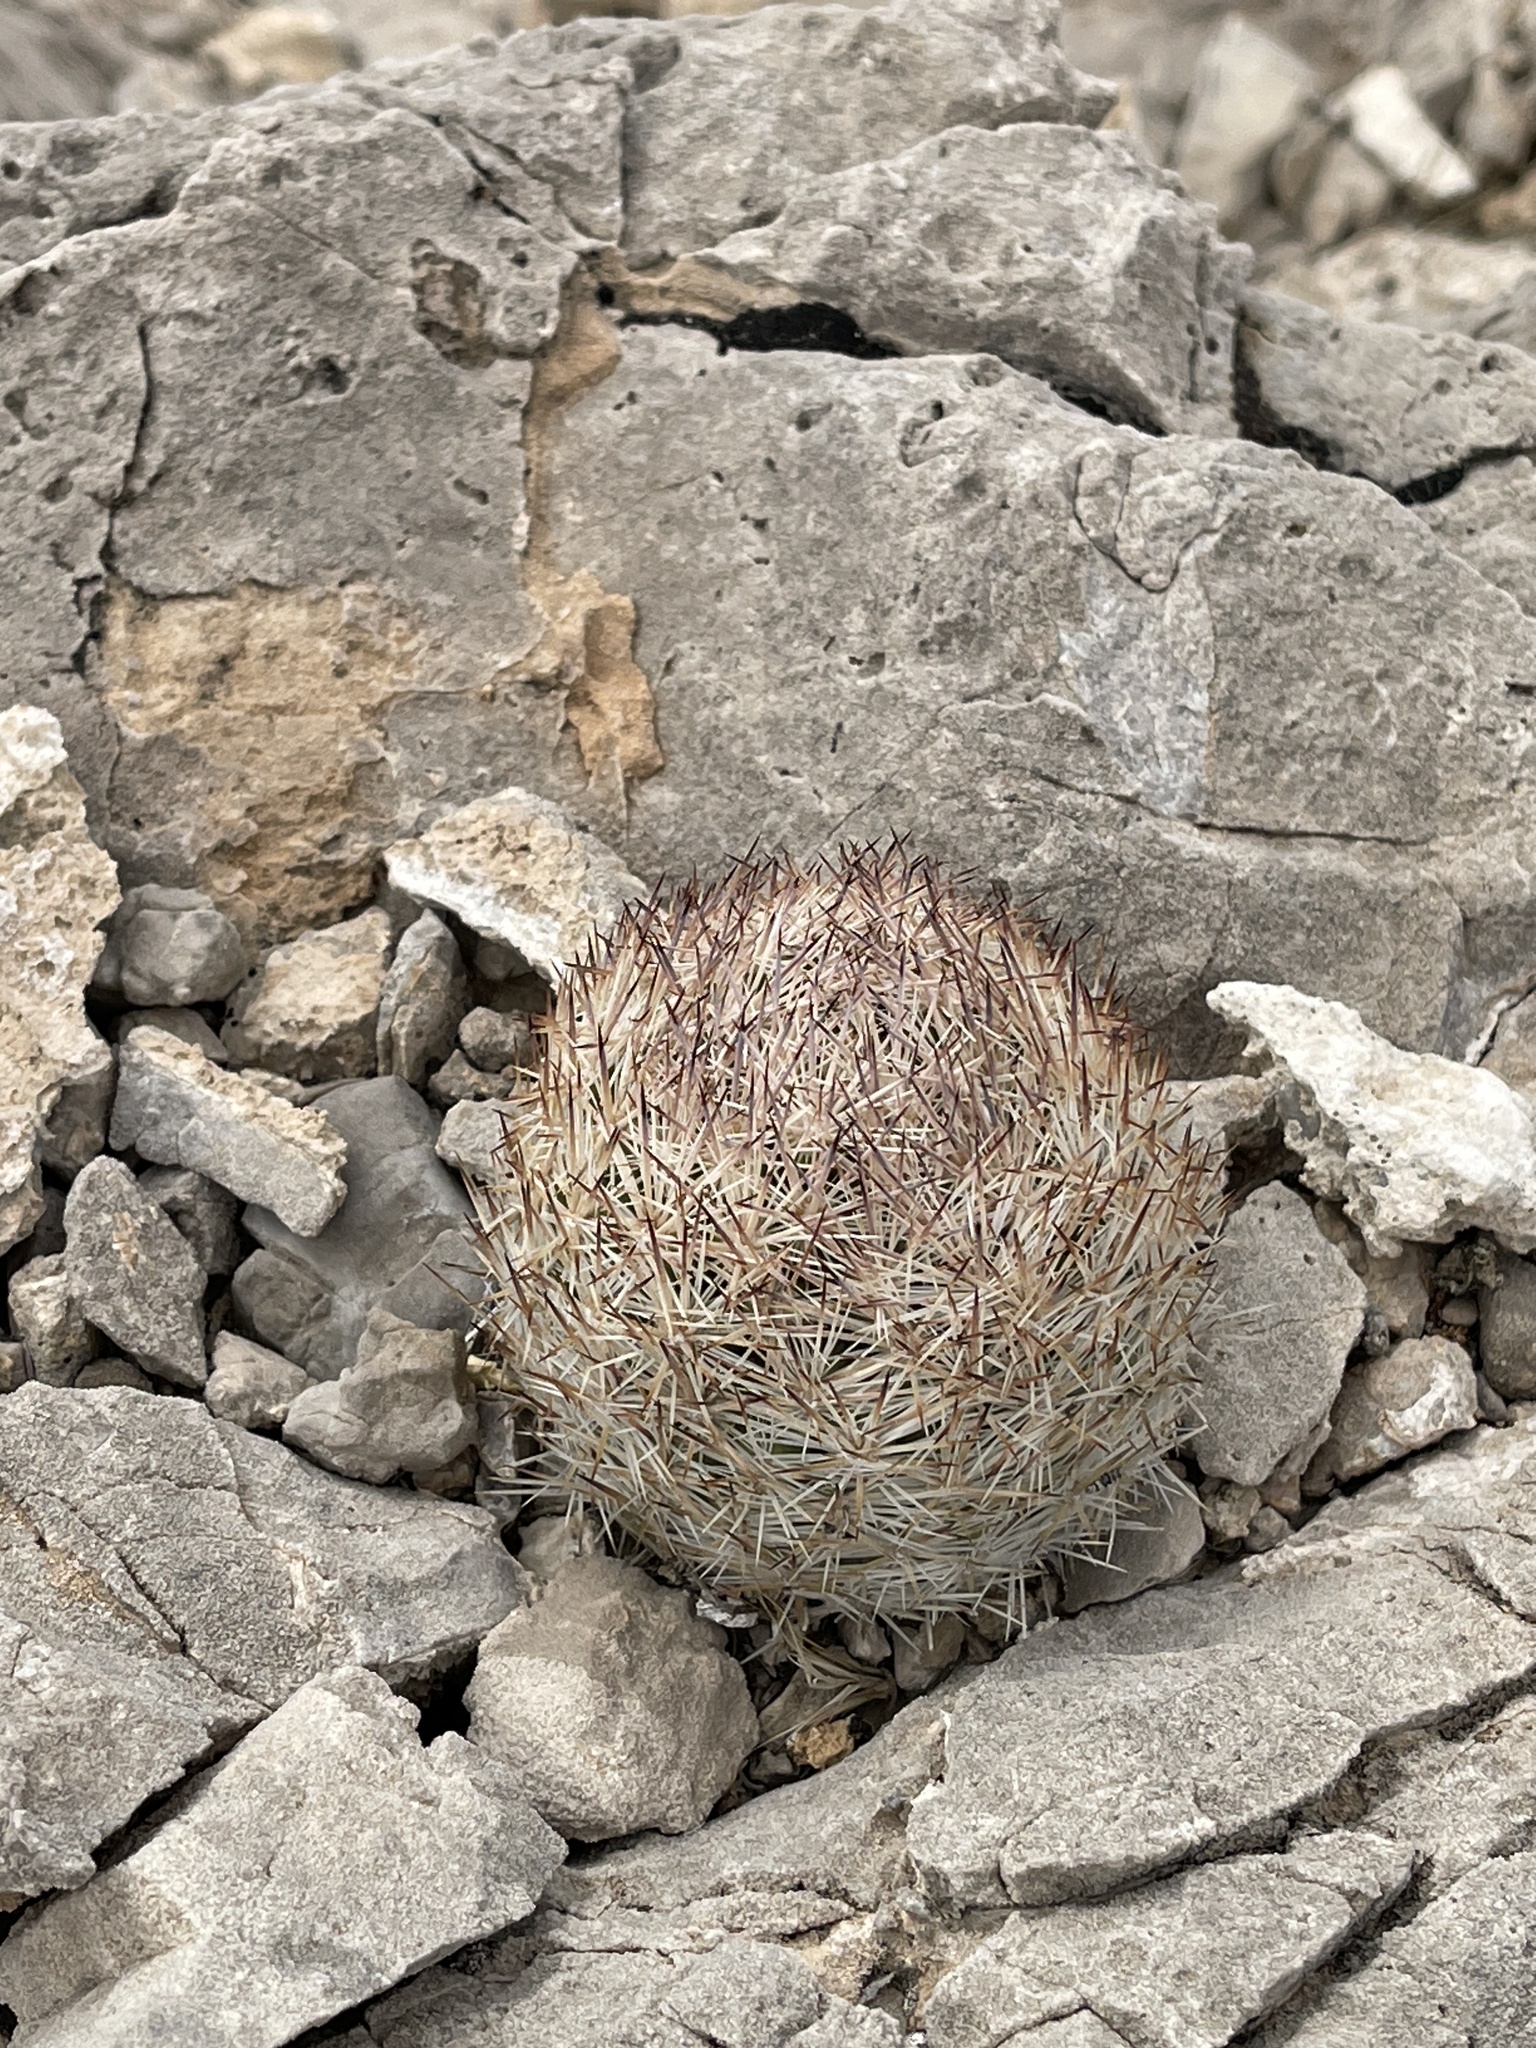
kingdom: Plantae
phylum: Tracheophyta
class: Magnoliopsida
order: Caryophyllales
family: Cactaceae
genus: Pelecyphora
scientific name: Pelecyphora dasyacantha
